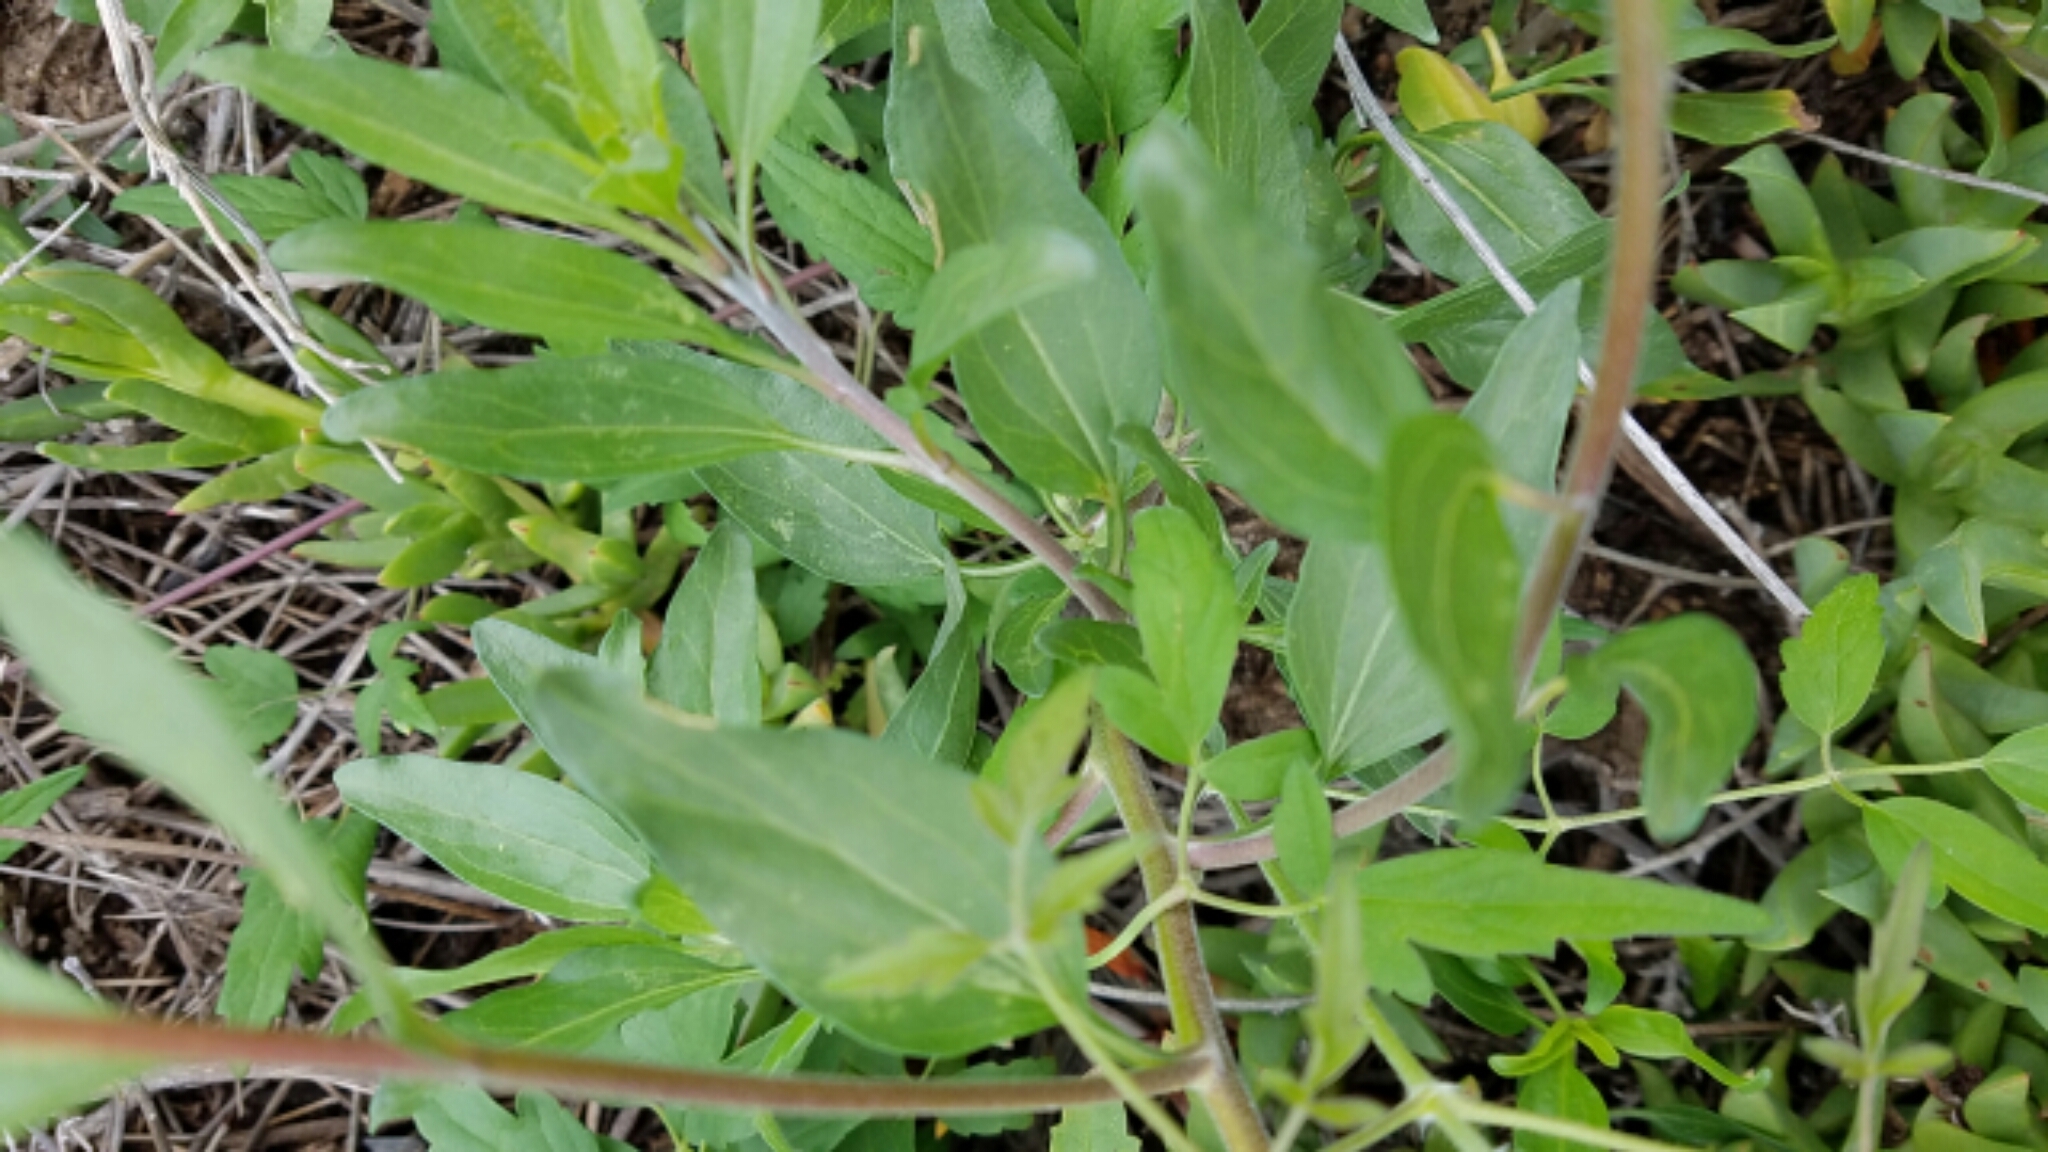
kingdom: Plantae
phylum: Tracheophyta
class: Magnoliopsida
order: Asterales
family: Asteraceae
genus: Encelia
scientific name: Encelia californica
